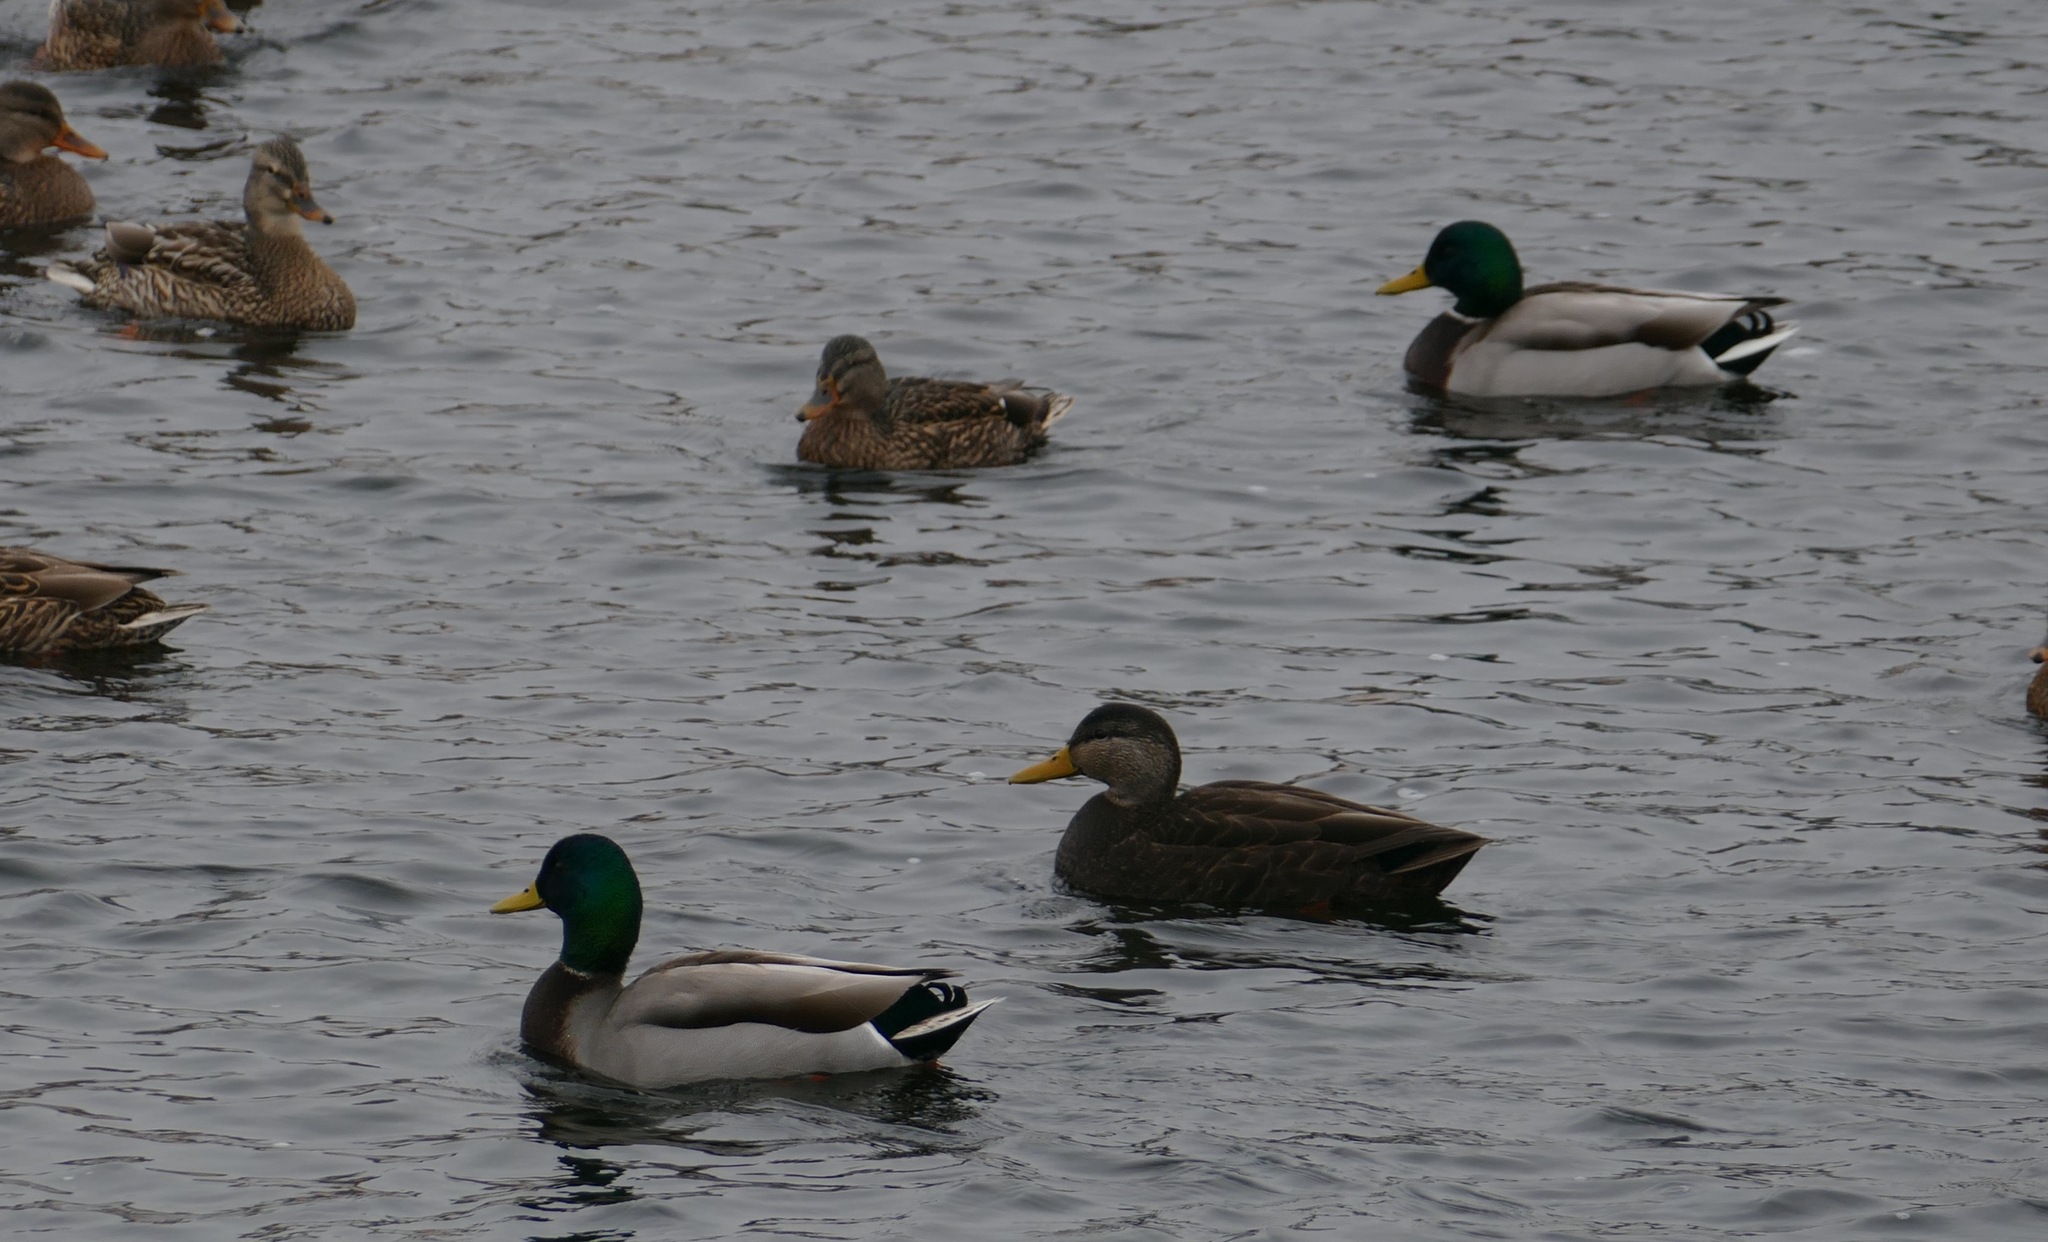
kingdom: Animalia
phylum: Chordata
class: Aves
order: Anseriformes
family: Anatidae
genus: Anas
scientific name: Anas rubripes
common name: American black duck
